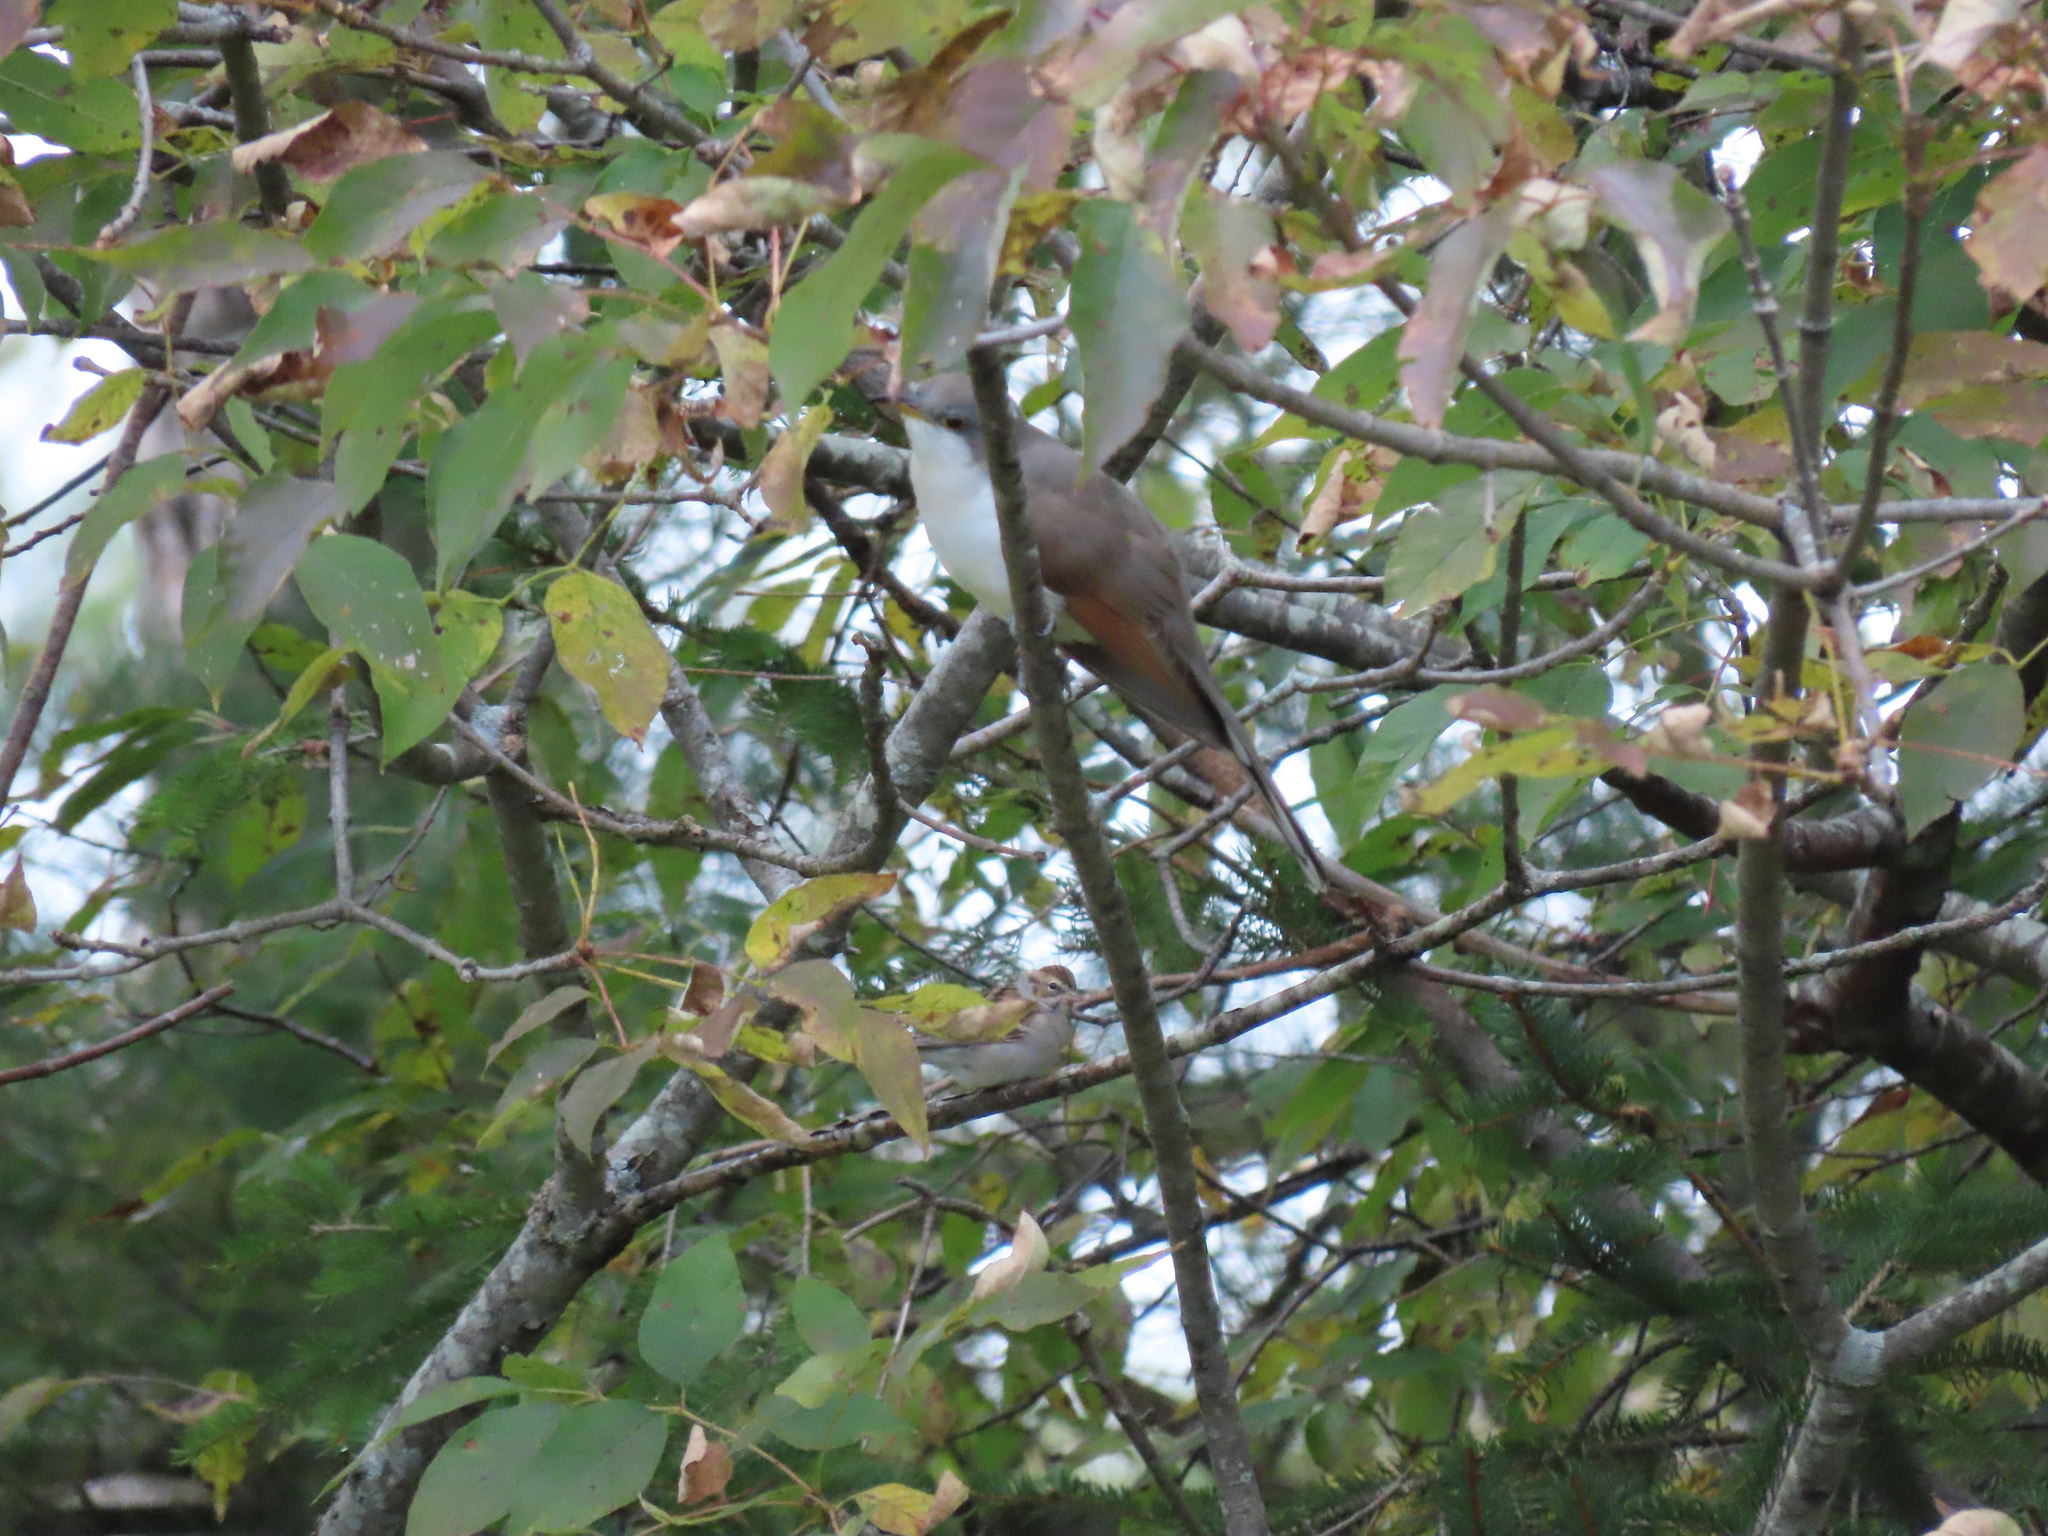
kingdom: Animalia
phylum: Chordata
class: Aves
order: Cuculiformes
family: Cuculidae
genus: Coccyzus
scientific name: Coccyzus americanus
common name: Yellow-billed cuckoo
